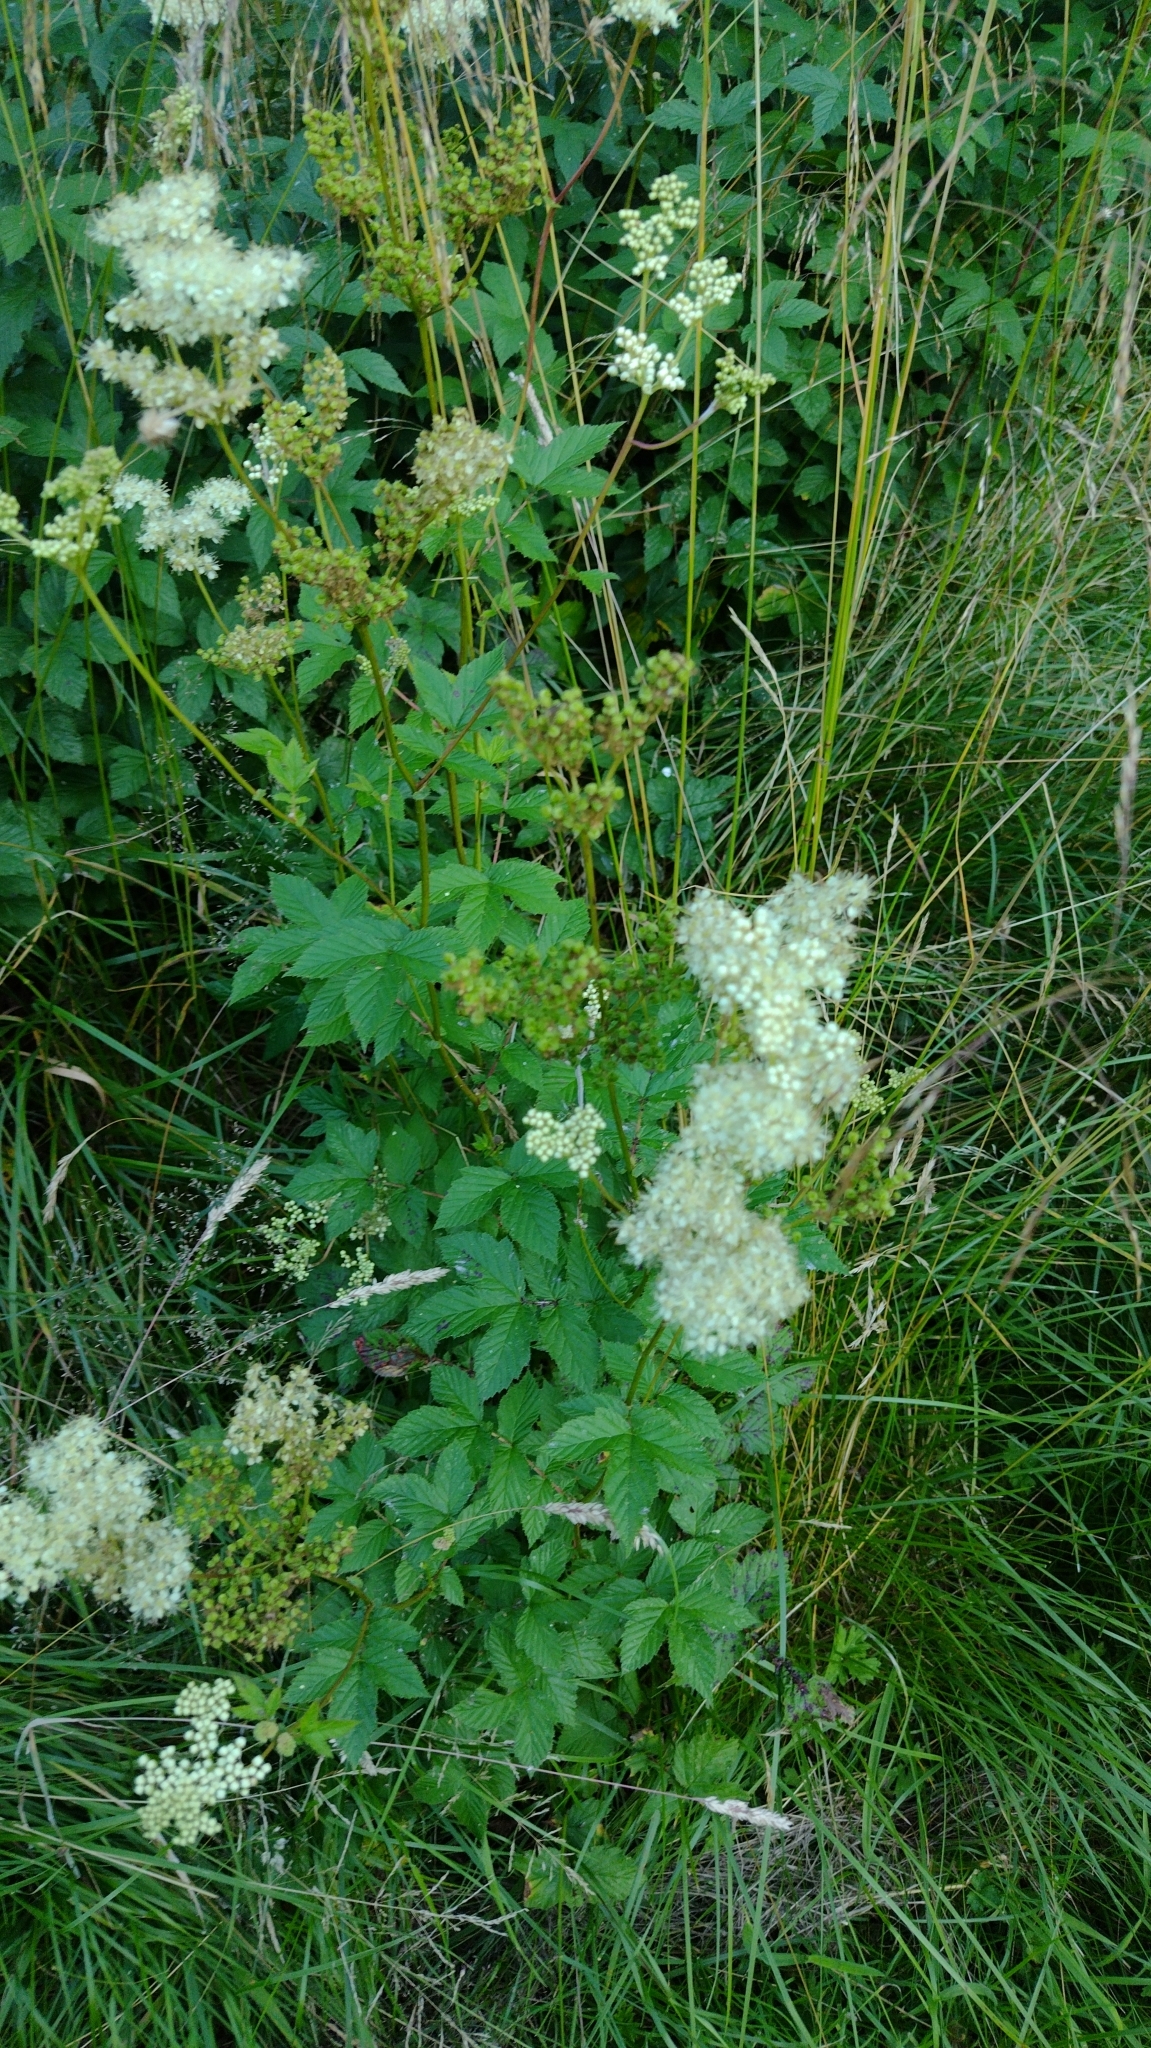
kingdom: Plantae
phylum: Tracheophyta
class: Magnoliopsida
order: Rosales
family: Rosaceae
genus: Filipendula
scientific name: Filipendula ulmaria
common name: Meadowsweet
